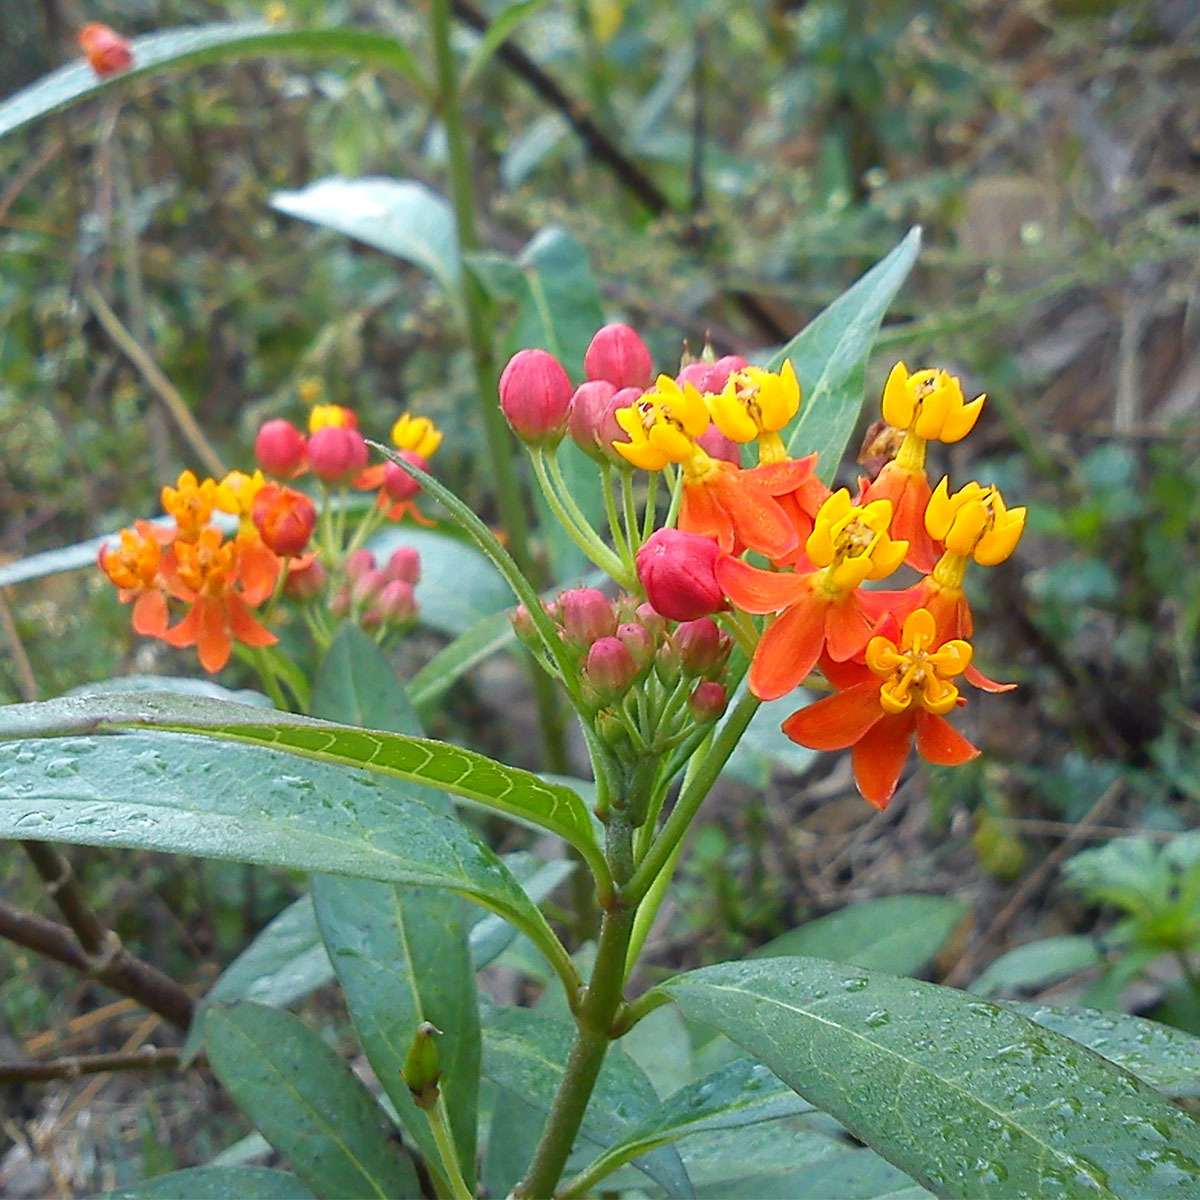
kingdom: Plantae
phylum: Tracheophyta
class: Magnoliopsida
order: Gentianales
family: Apocynaceae
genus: Asclepias
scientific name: Asclepias curassavica
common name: Bloodflower
